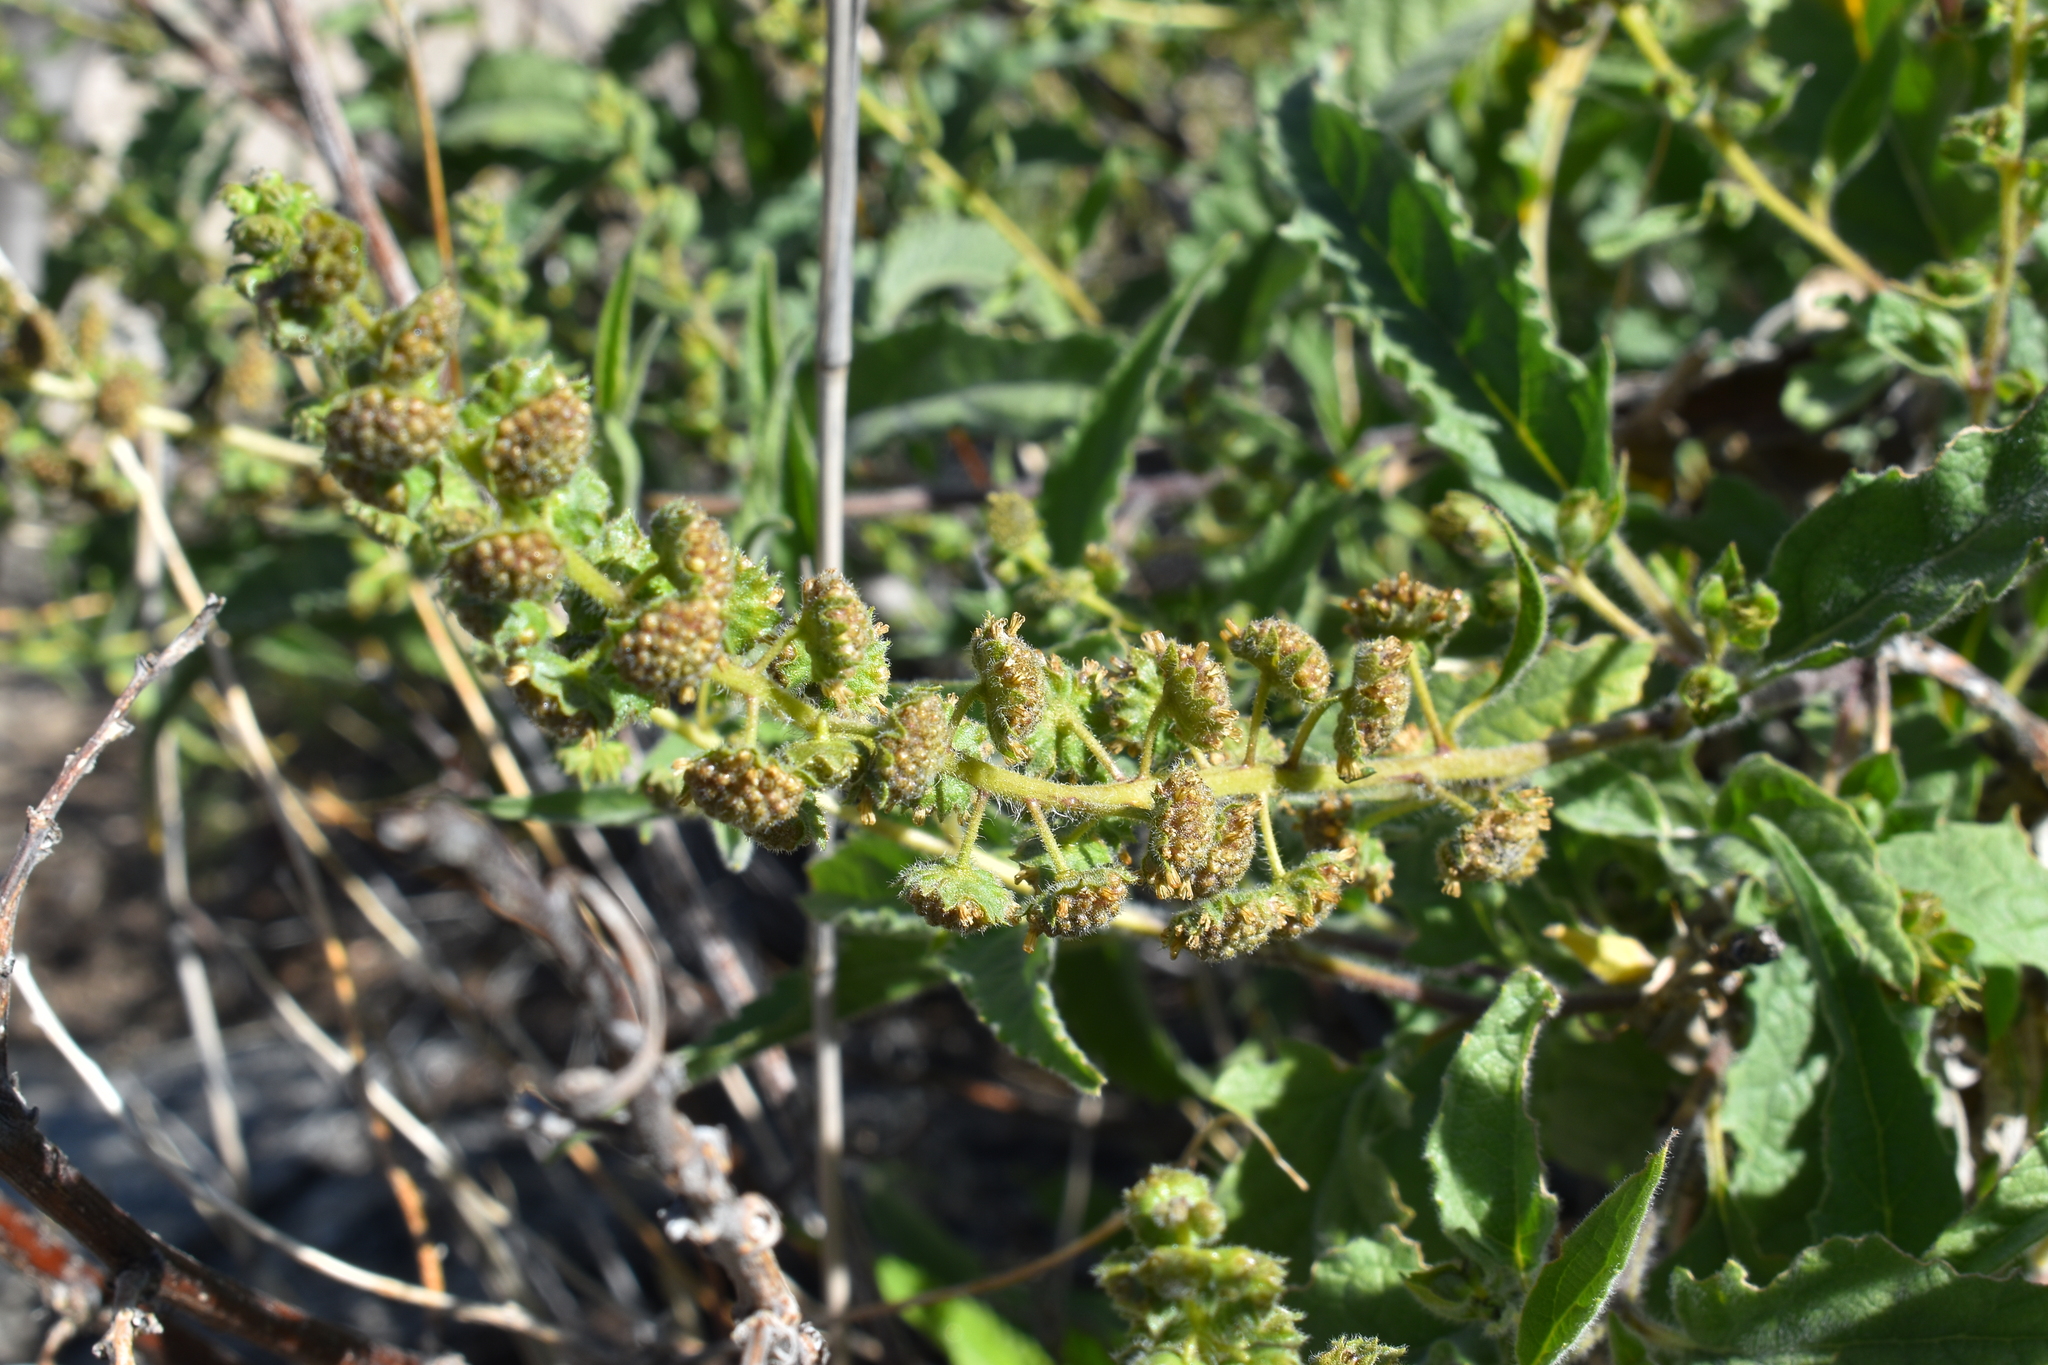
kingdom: Plantae
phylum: Tracheophyta
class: Magnoliopsida
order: Asterales
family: Asteraceae
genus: Ambrosia
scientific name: Ambrosia ambrosioides
